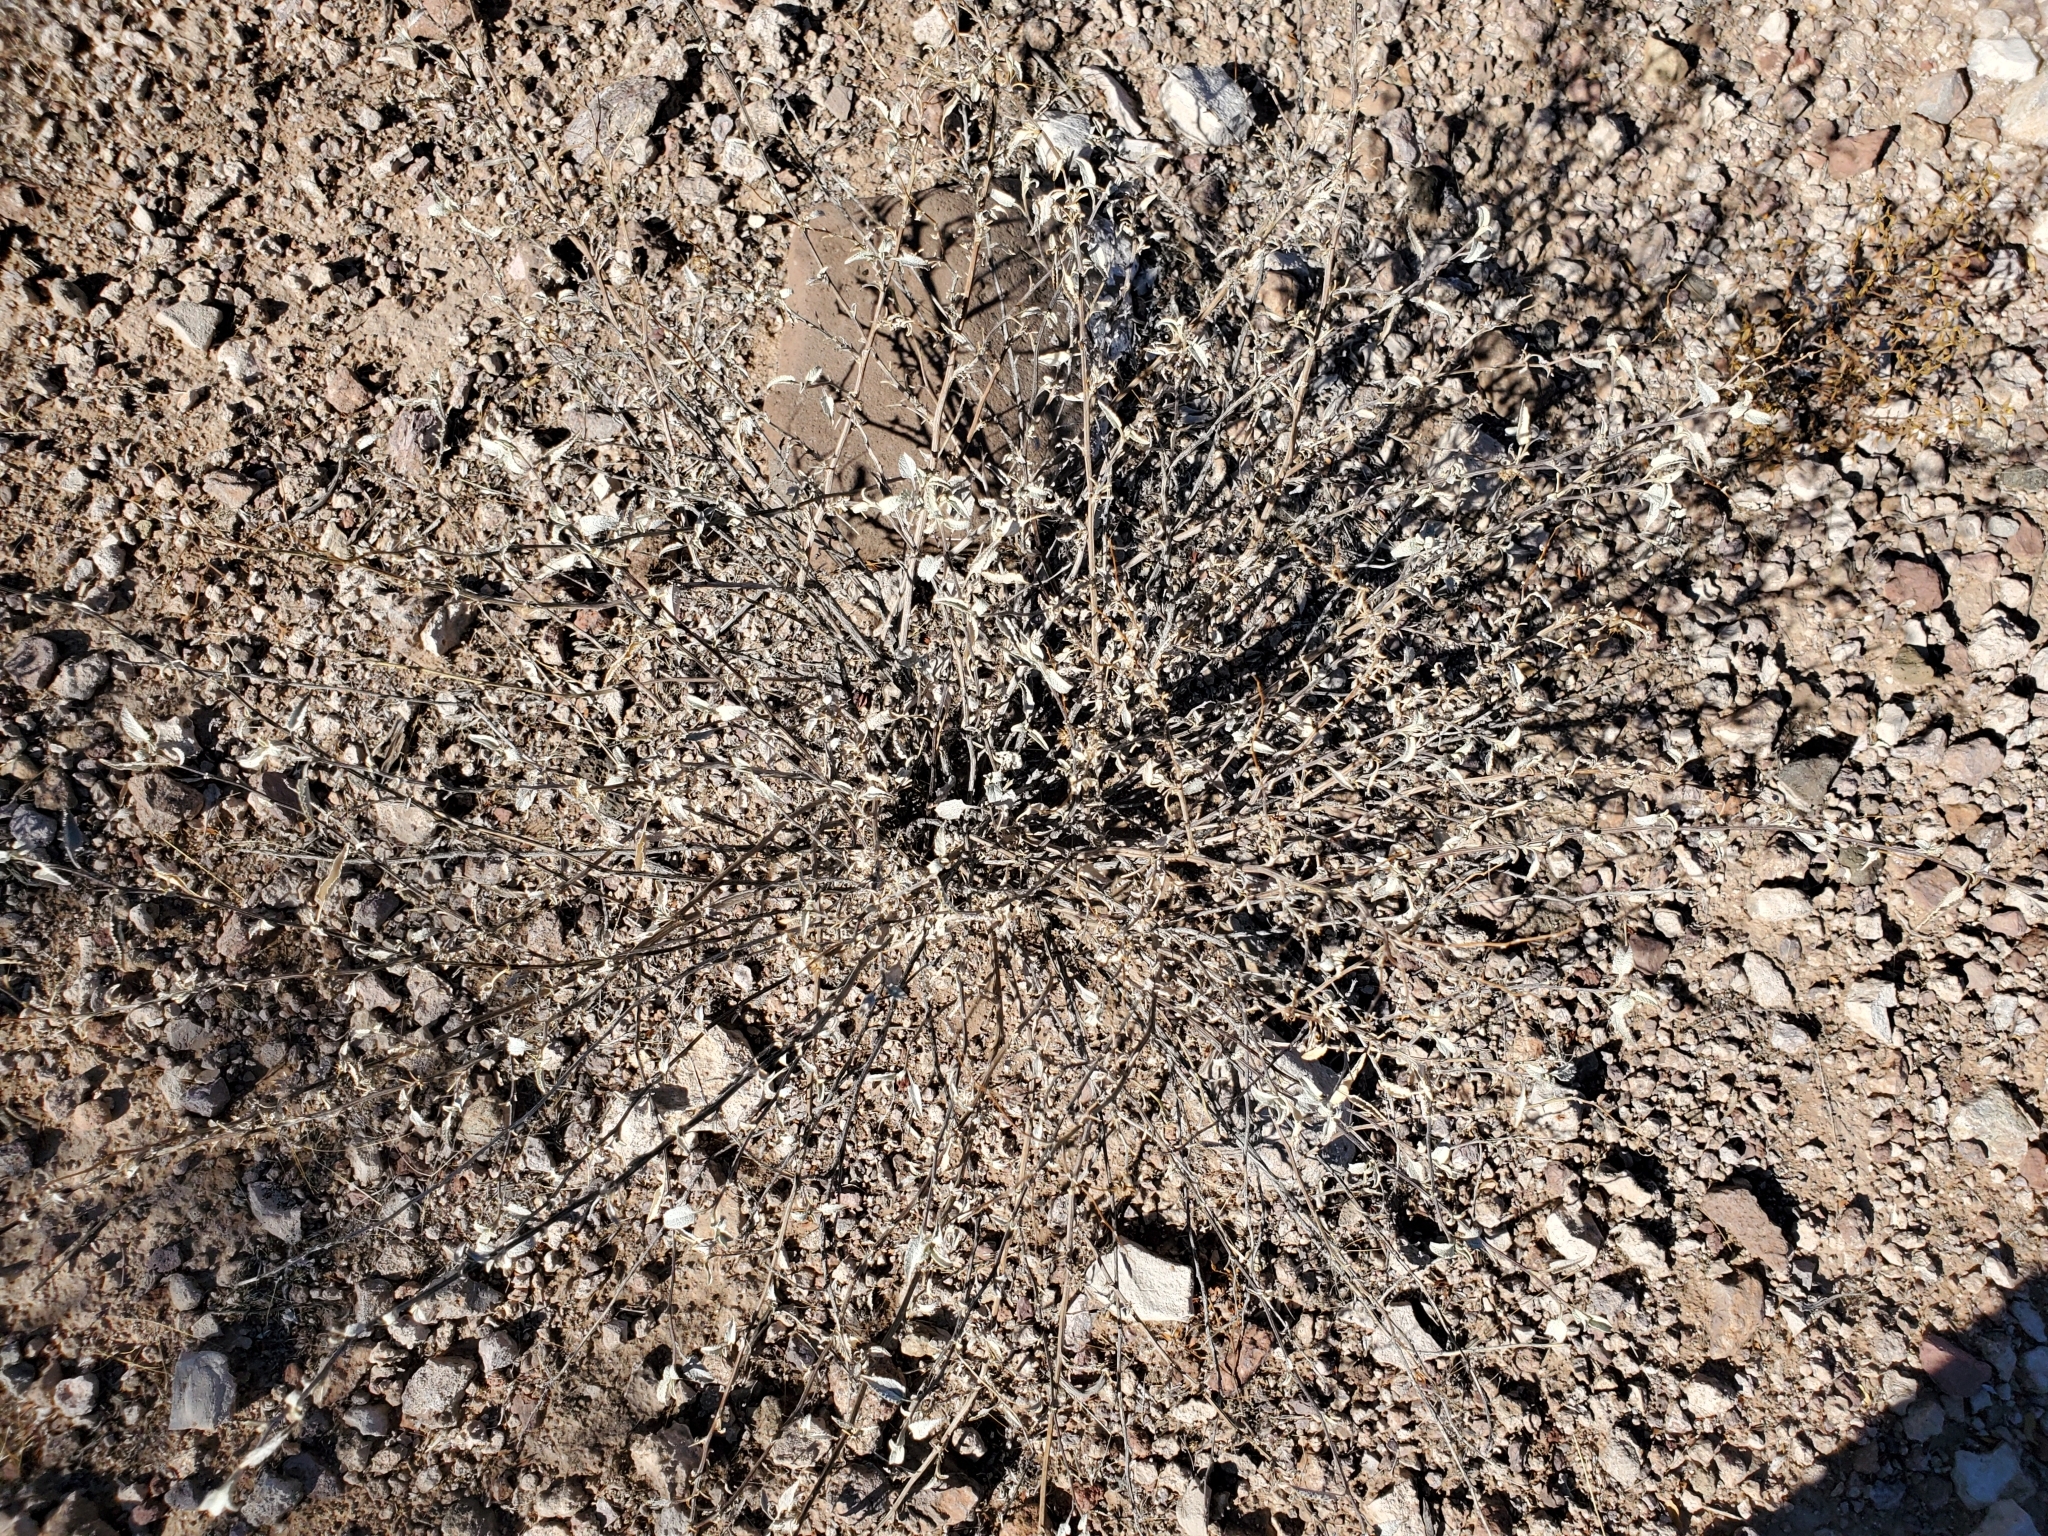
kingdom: Plantae
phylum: Tracheophyta
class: Magnoliopsida
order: Asterales
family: Asteraceae
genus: Ambrosia
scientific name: Ambrosia deltoidea
